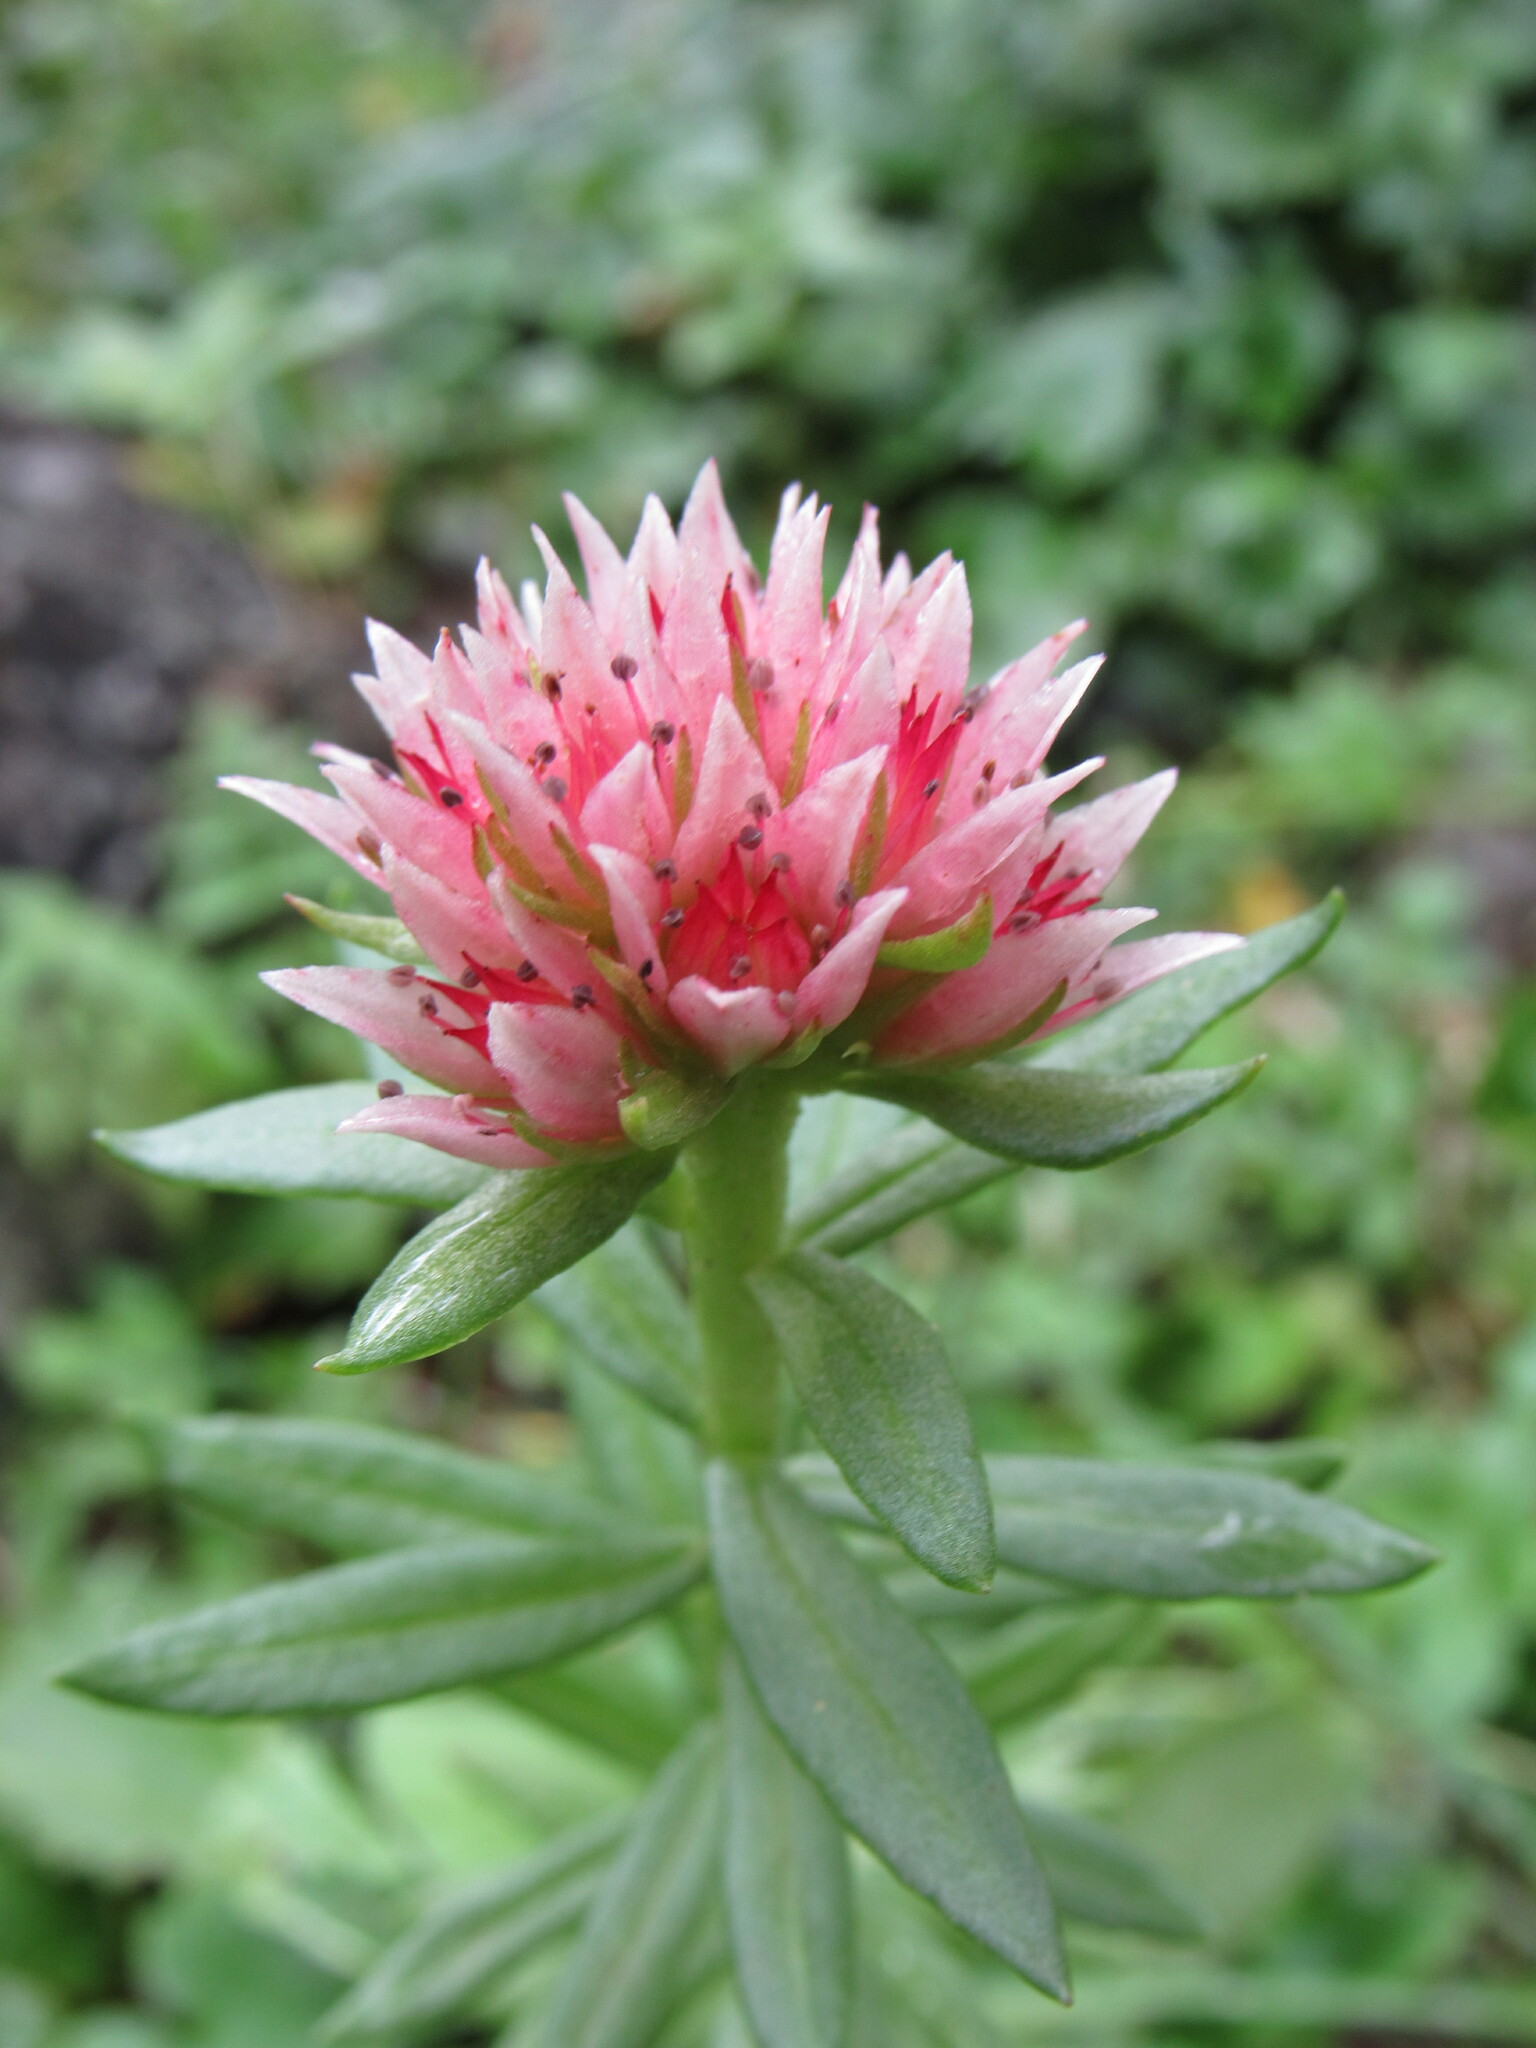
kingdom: Plantae
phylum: Tracheophyta
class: Magnoliopsida
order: Saxifragales
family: Crassulaceae
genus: Rhodiola
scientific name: Rhodiola rhodantha
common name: Red orpine
